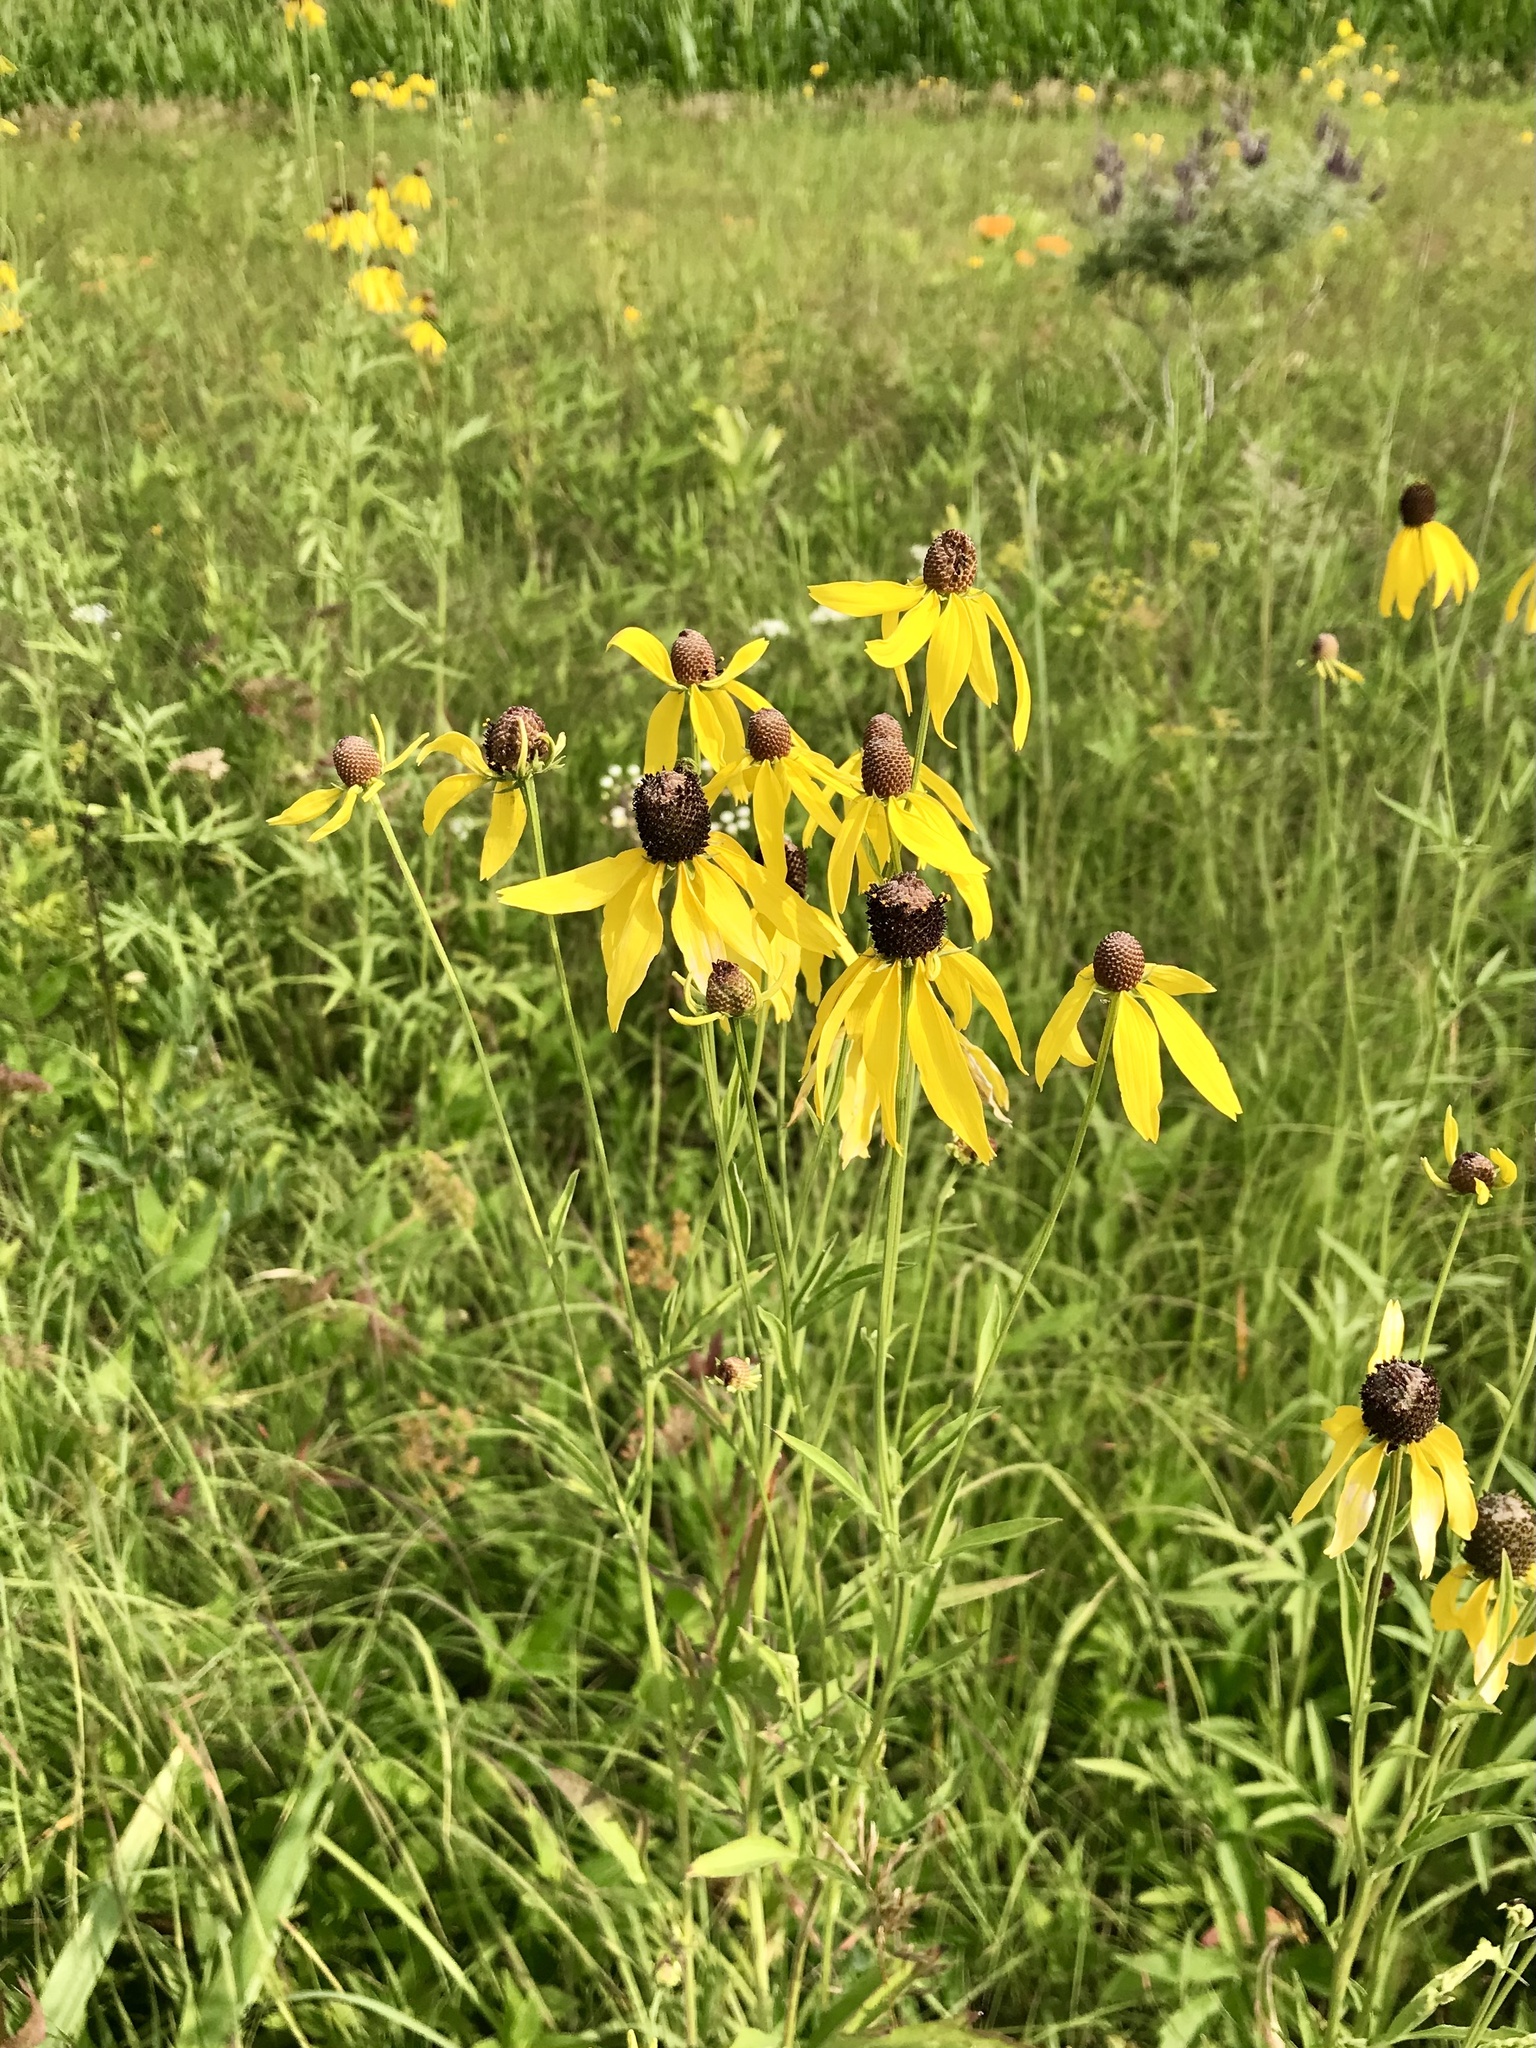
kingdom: Plantae
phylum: Tracheophyta
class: Magnoliopsida
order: Asterales
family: Asteraceae
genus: Ratibida
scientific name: Ratibida pinnata
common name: Drooping prairie-coneflower
